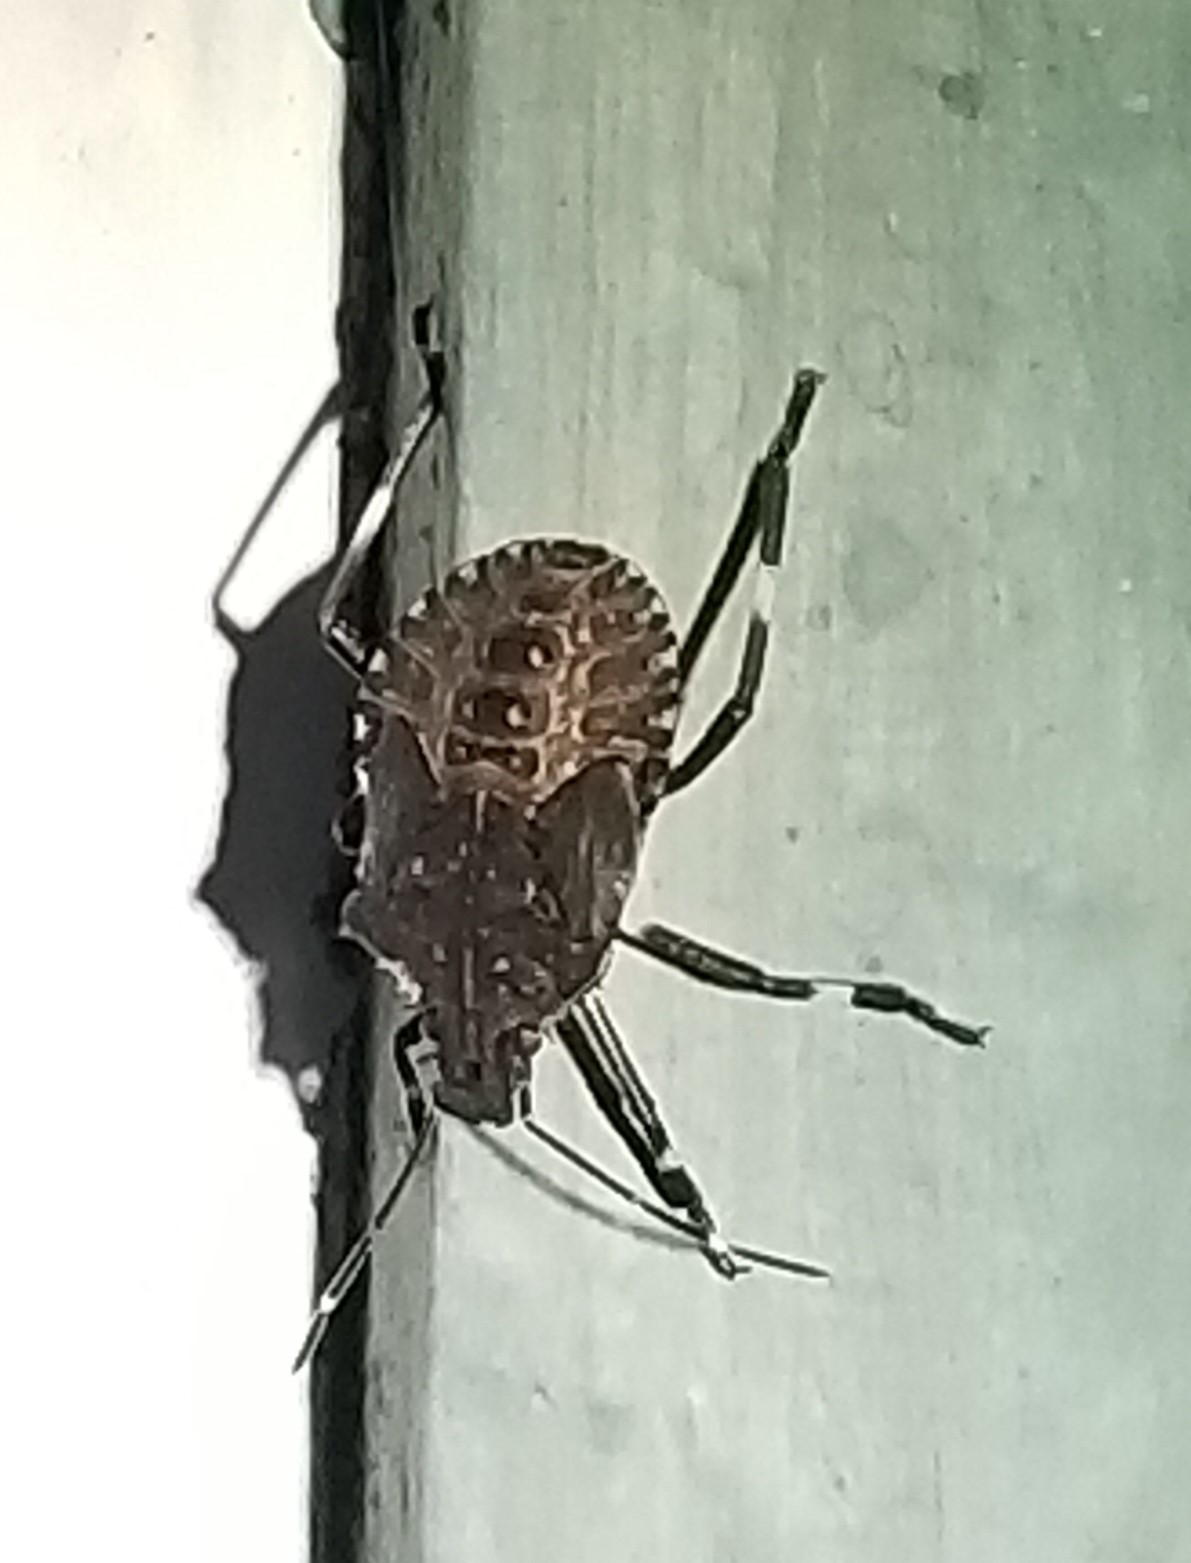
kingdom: Animalia
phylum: Arthropoda
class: Insecta
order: Hemiptera
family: Pentatomidae
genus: Halyomorpha
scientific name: Halyomorpha halys
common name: Brown marmorated stink bug
